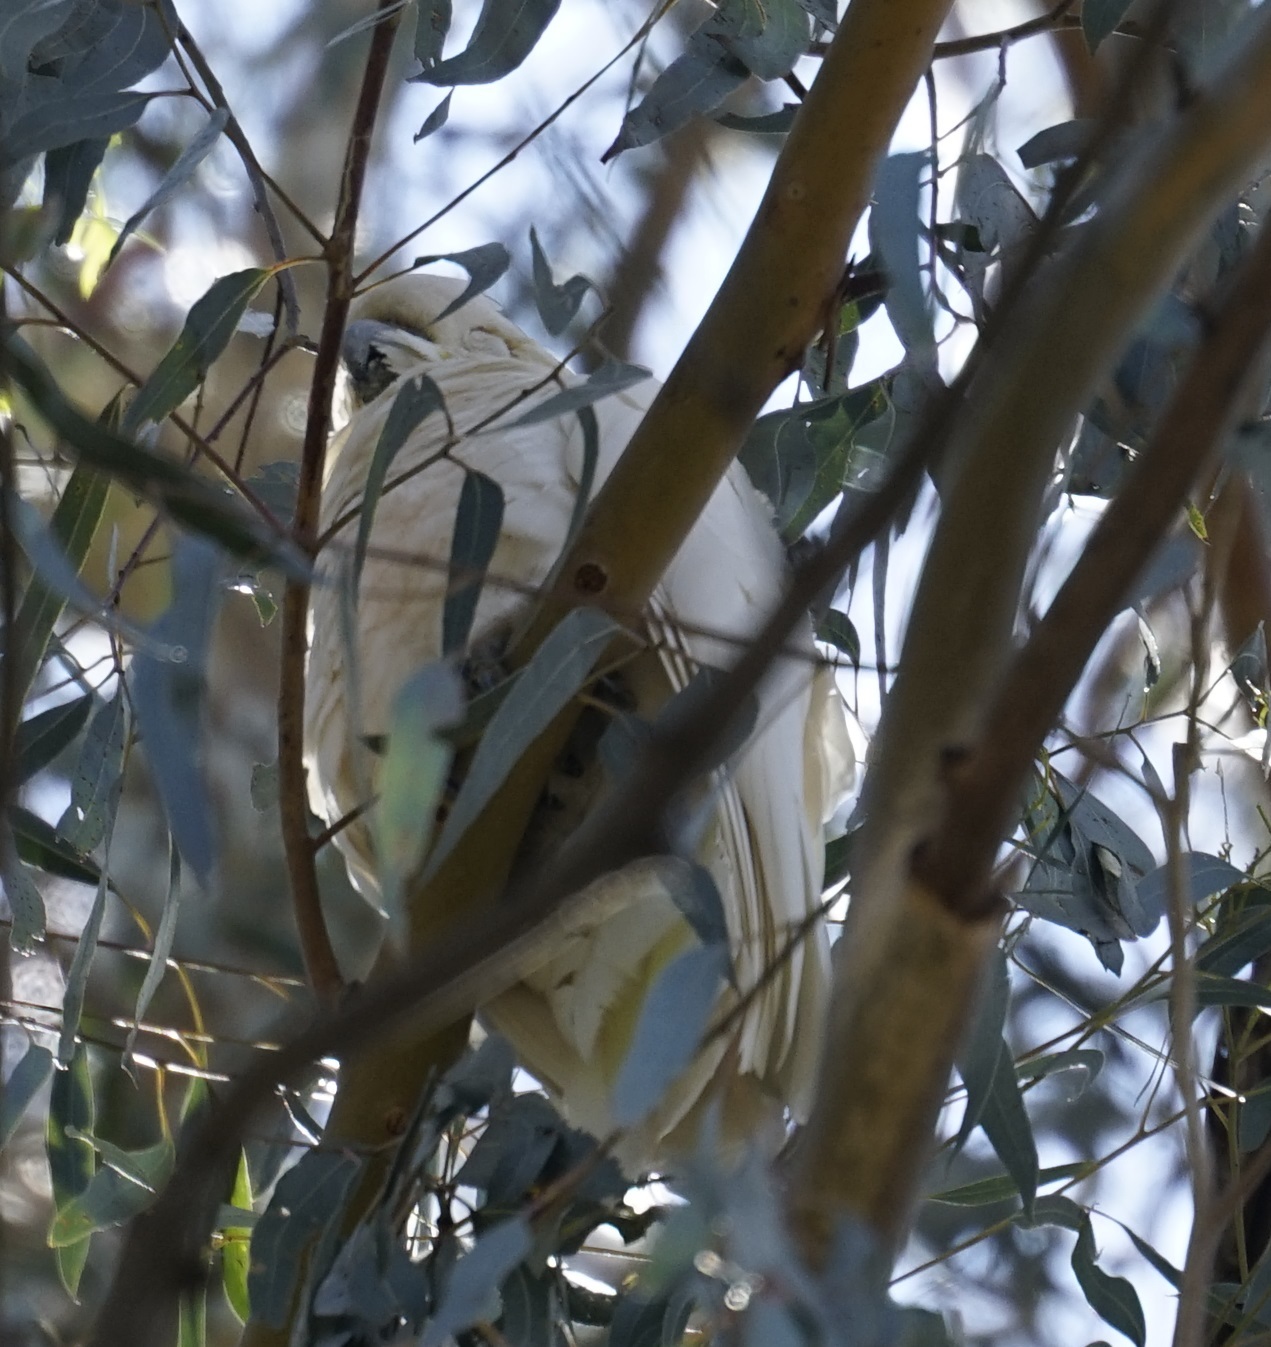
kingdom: Animalia
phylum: Chordata
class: Aves
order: Psittaciformes
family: Psittacidae
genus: Cacatua
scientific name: Cacatua galerita
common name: Sulphur-crested cockatoo
